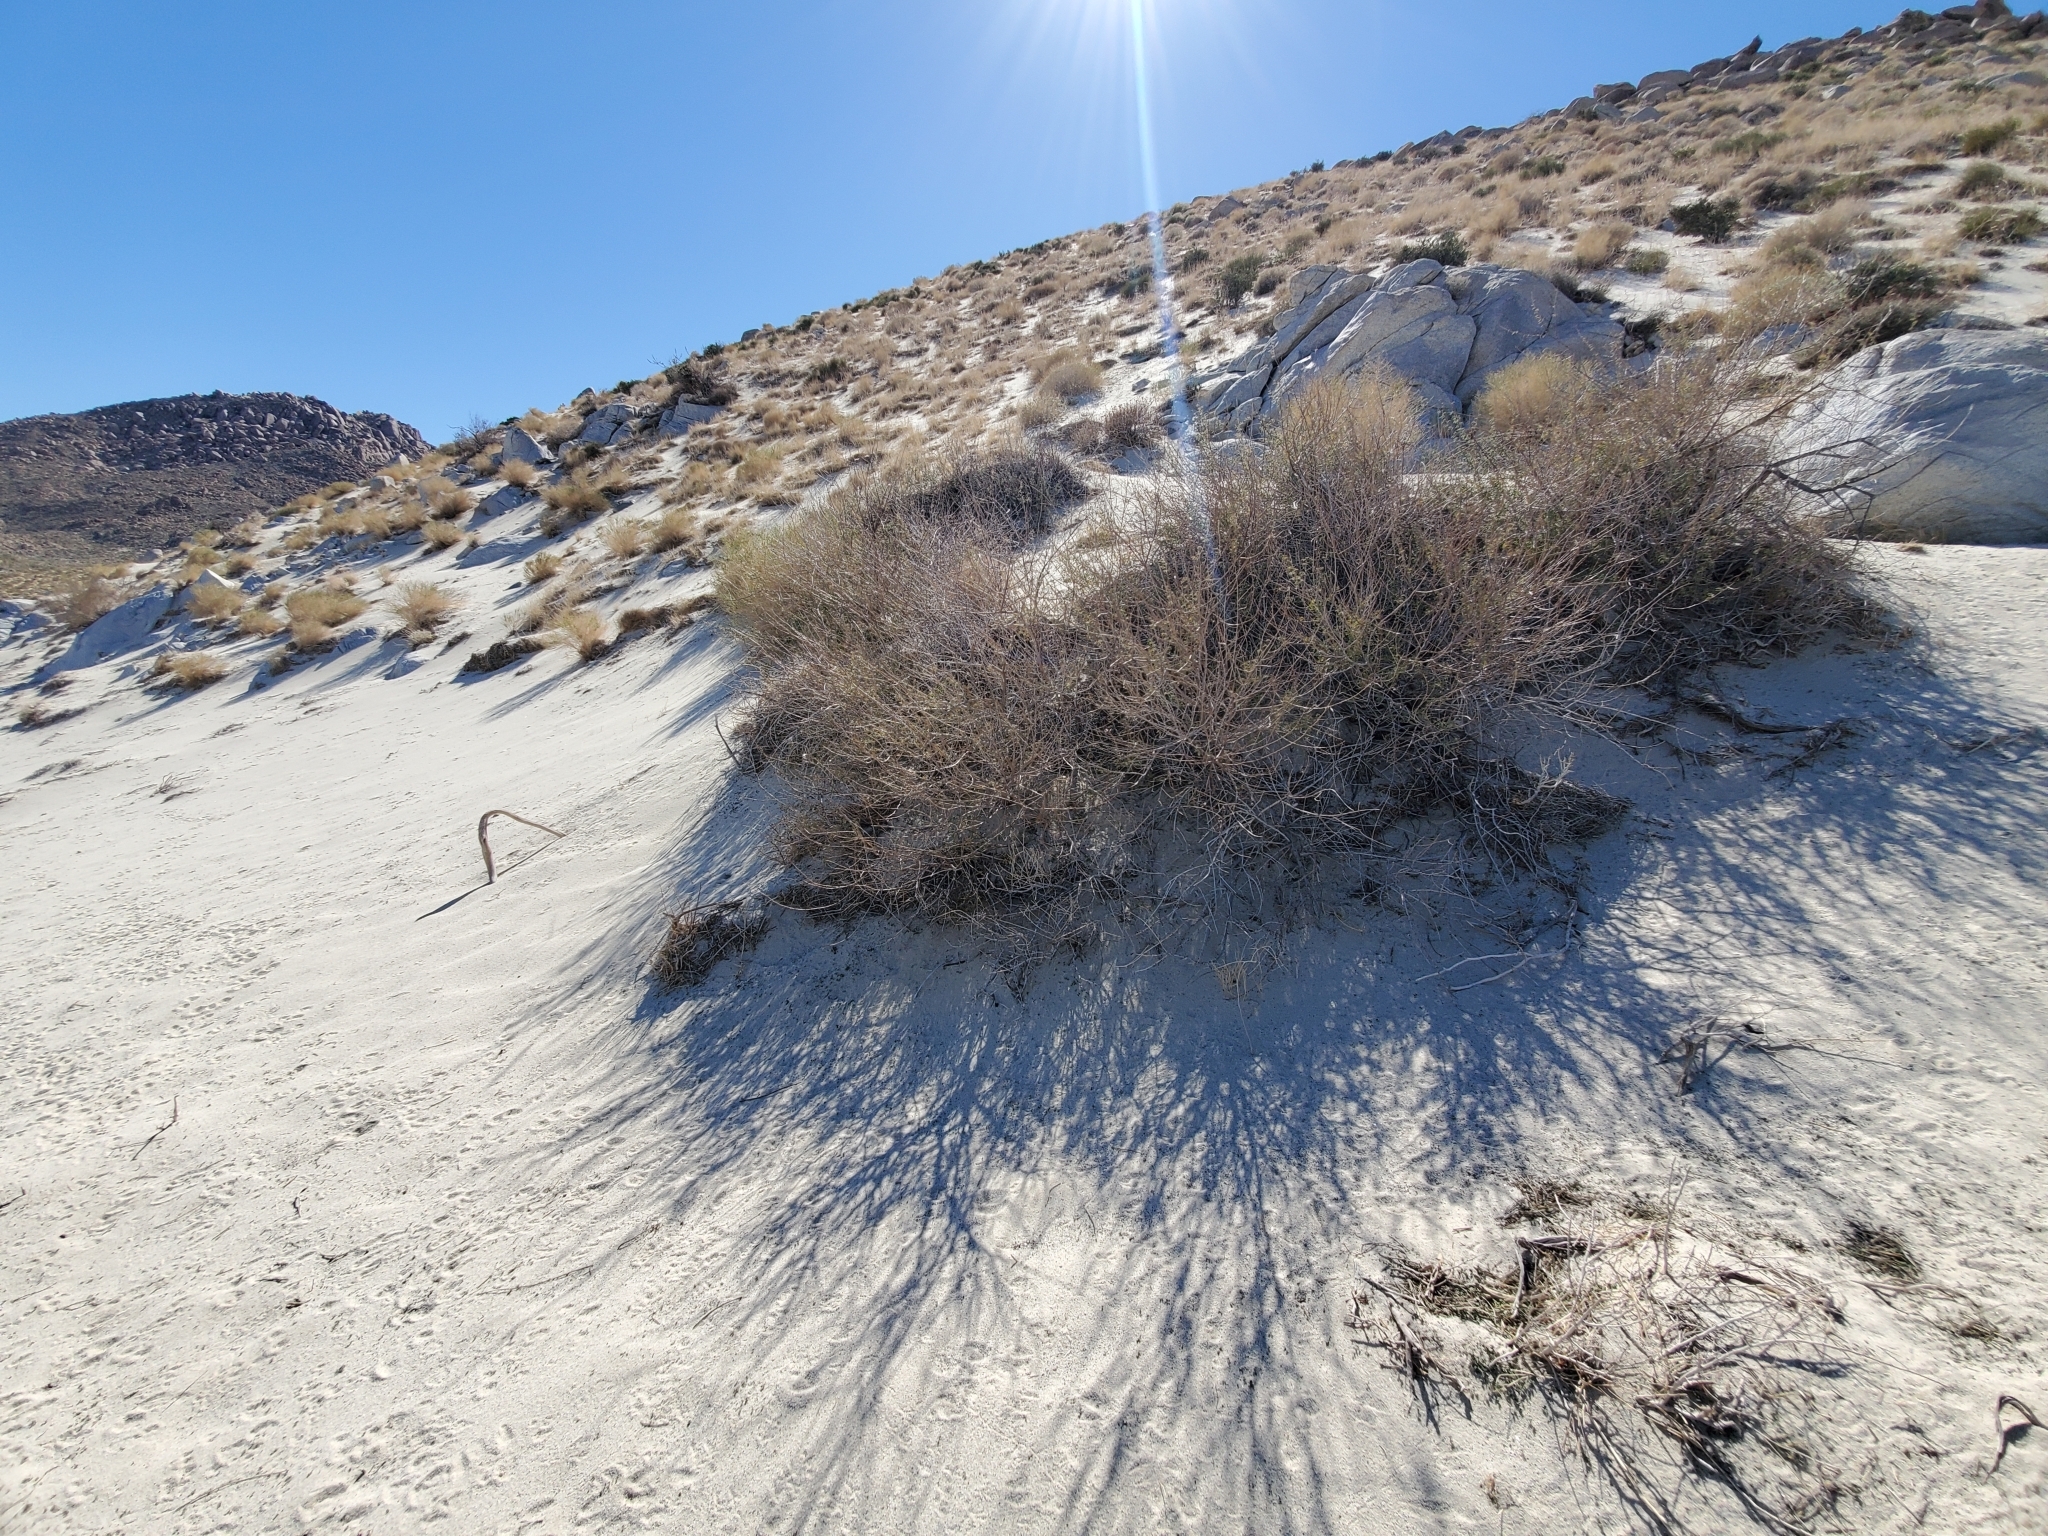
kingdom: Plantae
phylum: Tracheophyta
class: Magnoliopsida
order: Fabales
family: Fabaceae
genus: Senegalia
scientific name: Senegalia greggii
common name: Texas-mimosa
